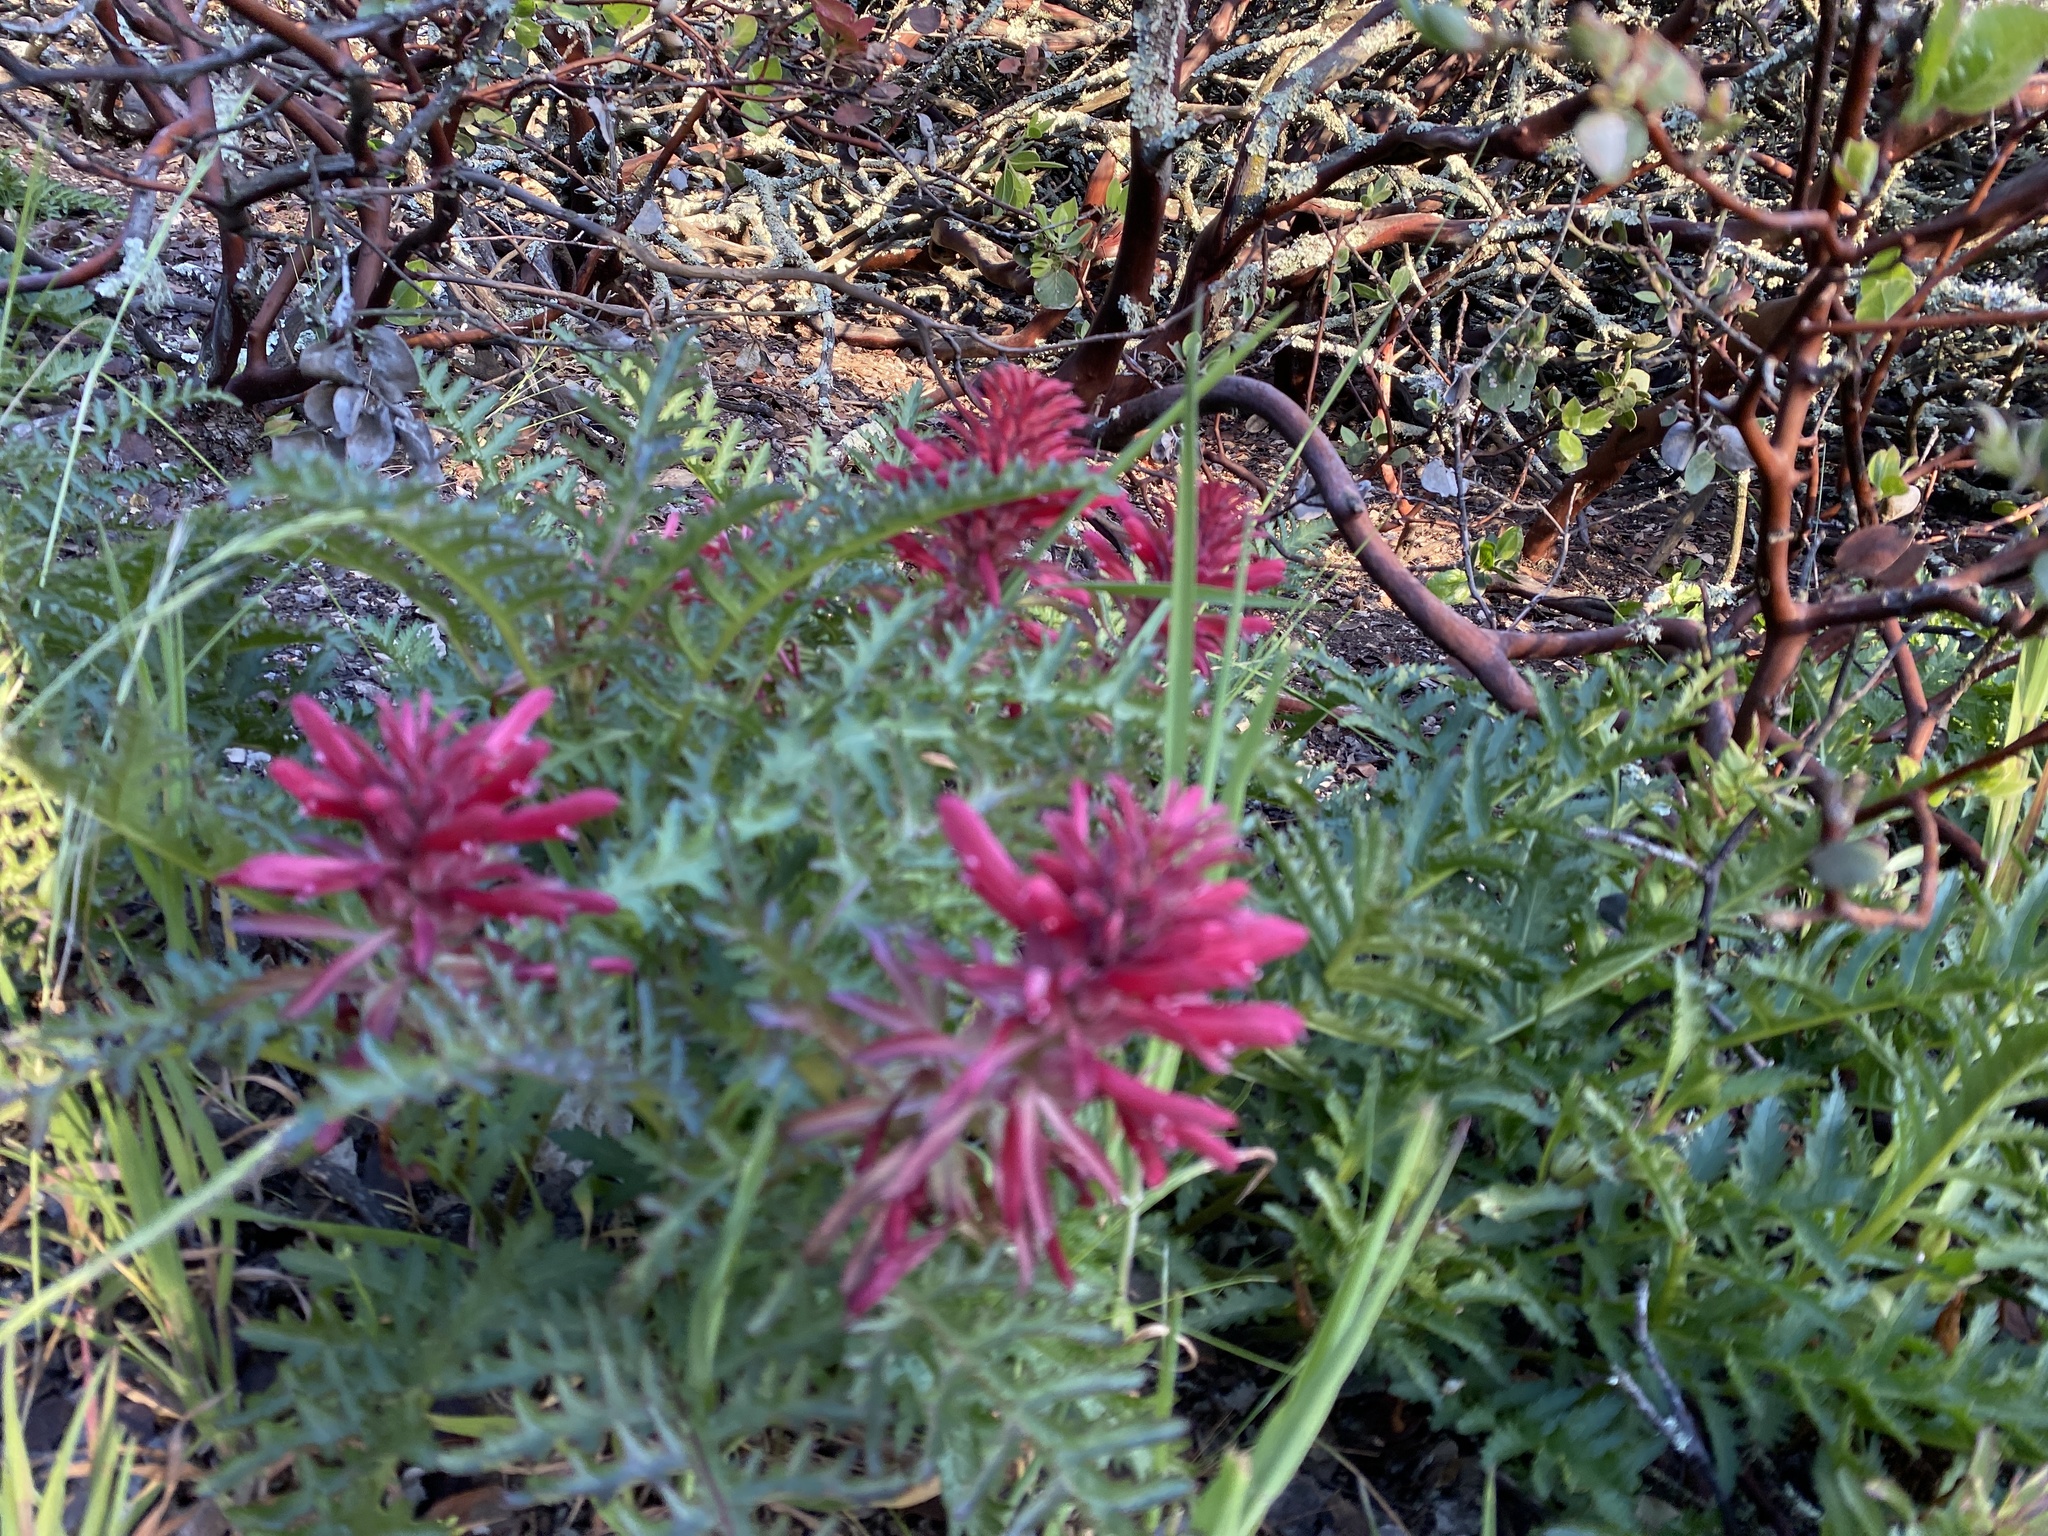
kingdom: Plantae
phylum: Tracheophyta
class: Magnoliopsida
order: Lamiales
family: Orobanchaceae
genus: Pedicularis
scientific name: Pedicularis densiflora
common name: Indian warrior
